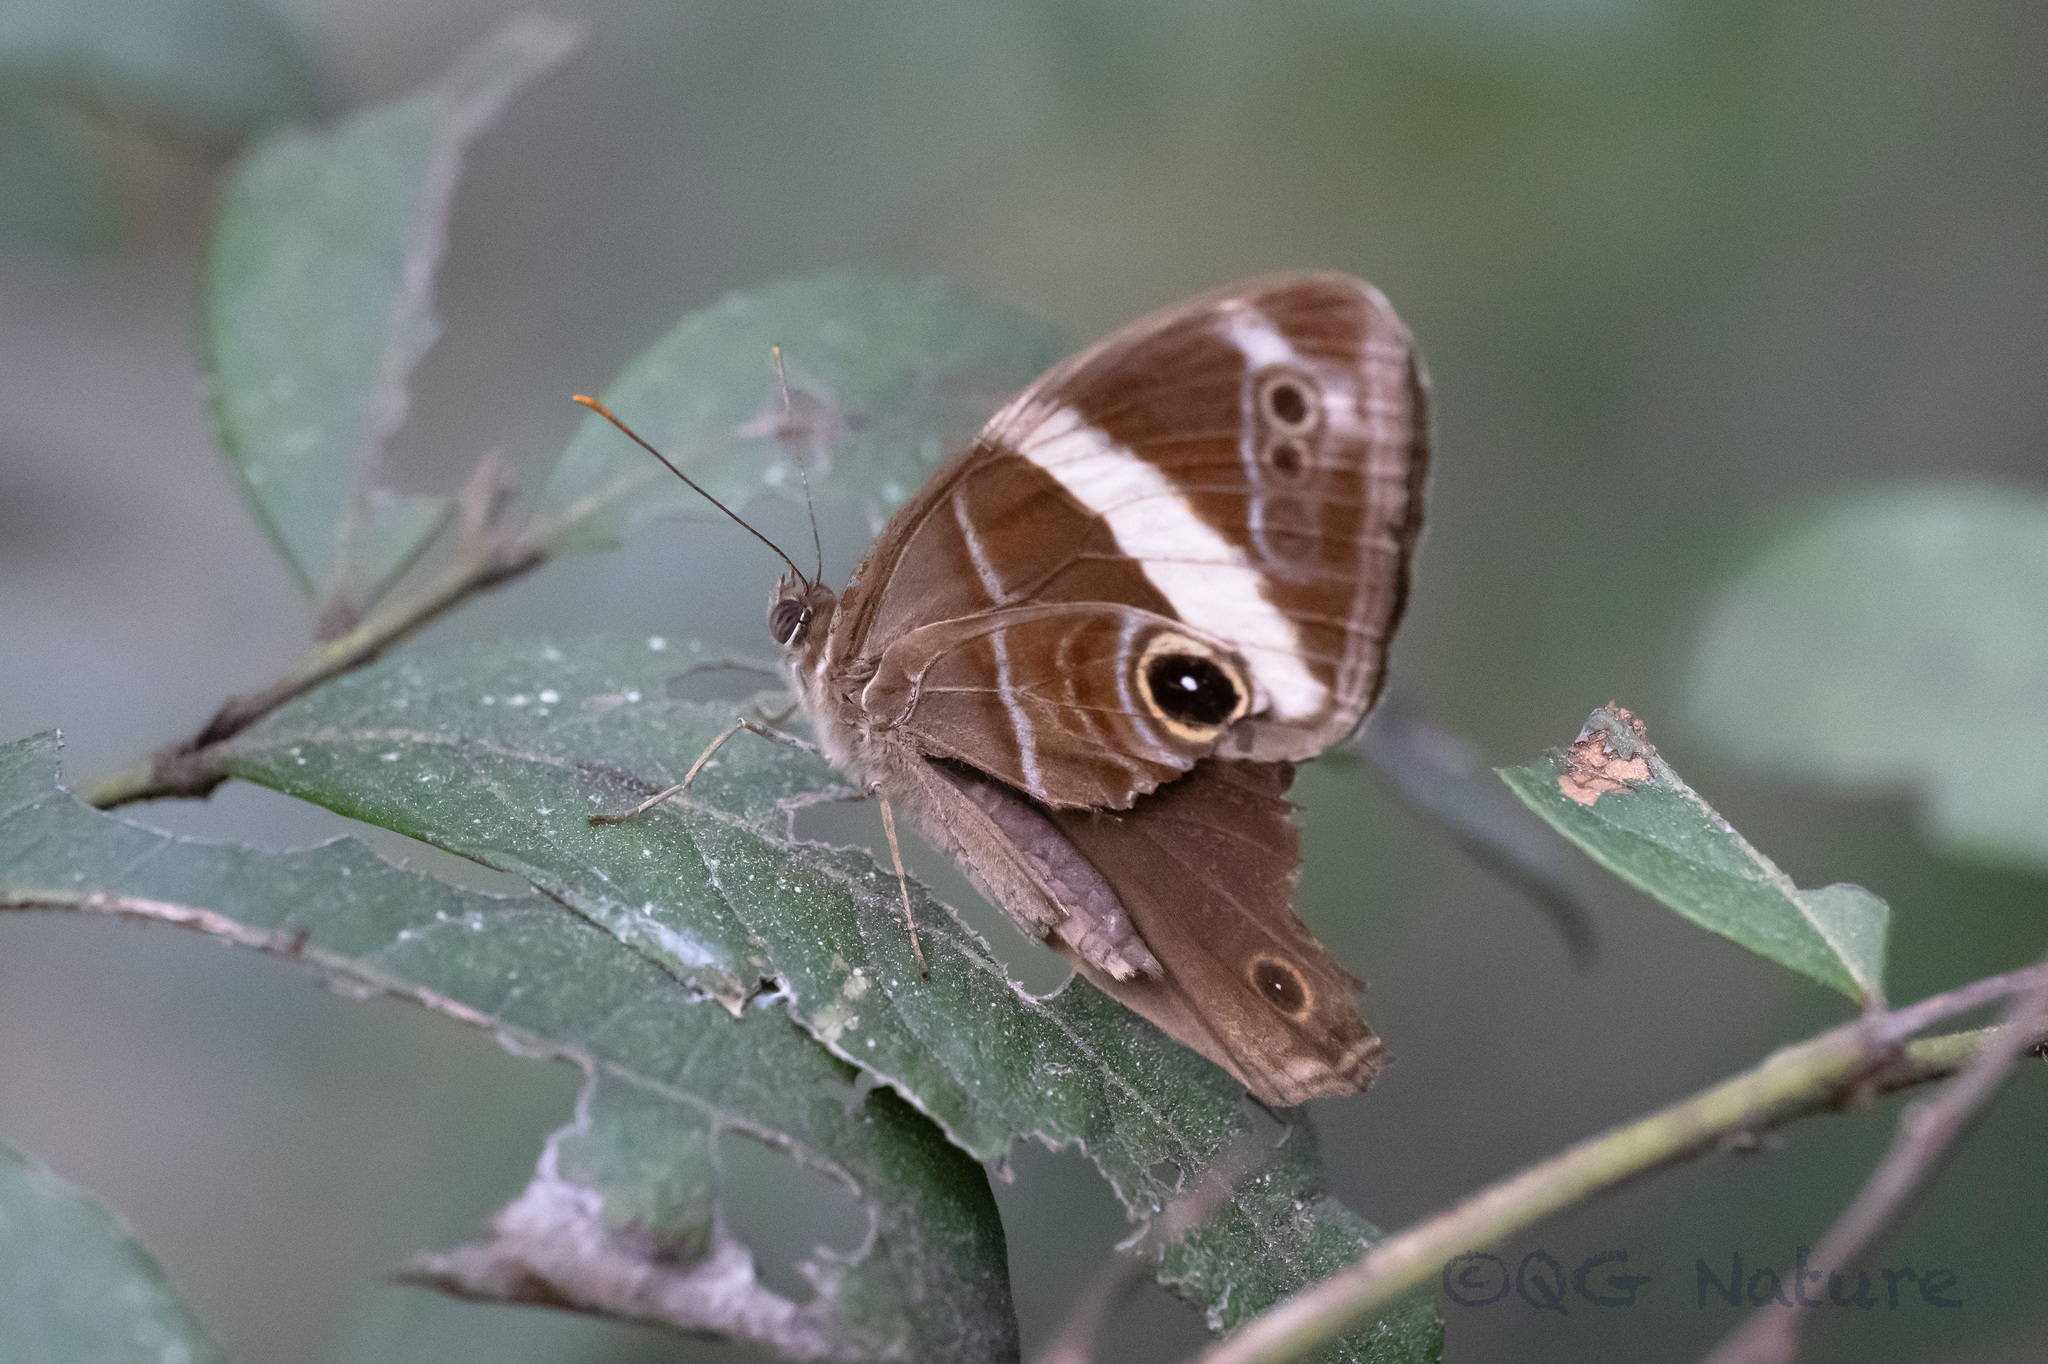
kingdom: Animalia
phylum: Arthropoda
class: Insecta
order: Lepidoptera
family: Nymphalidae
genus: Lethe
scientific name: Lethe confusa
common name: Banded treebrown
